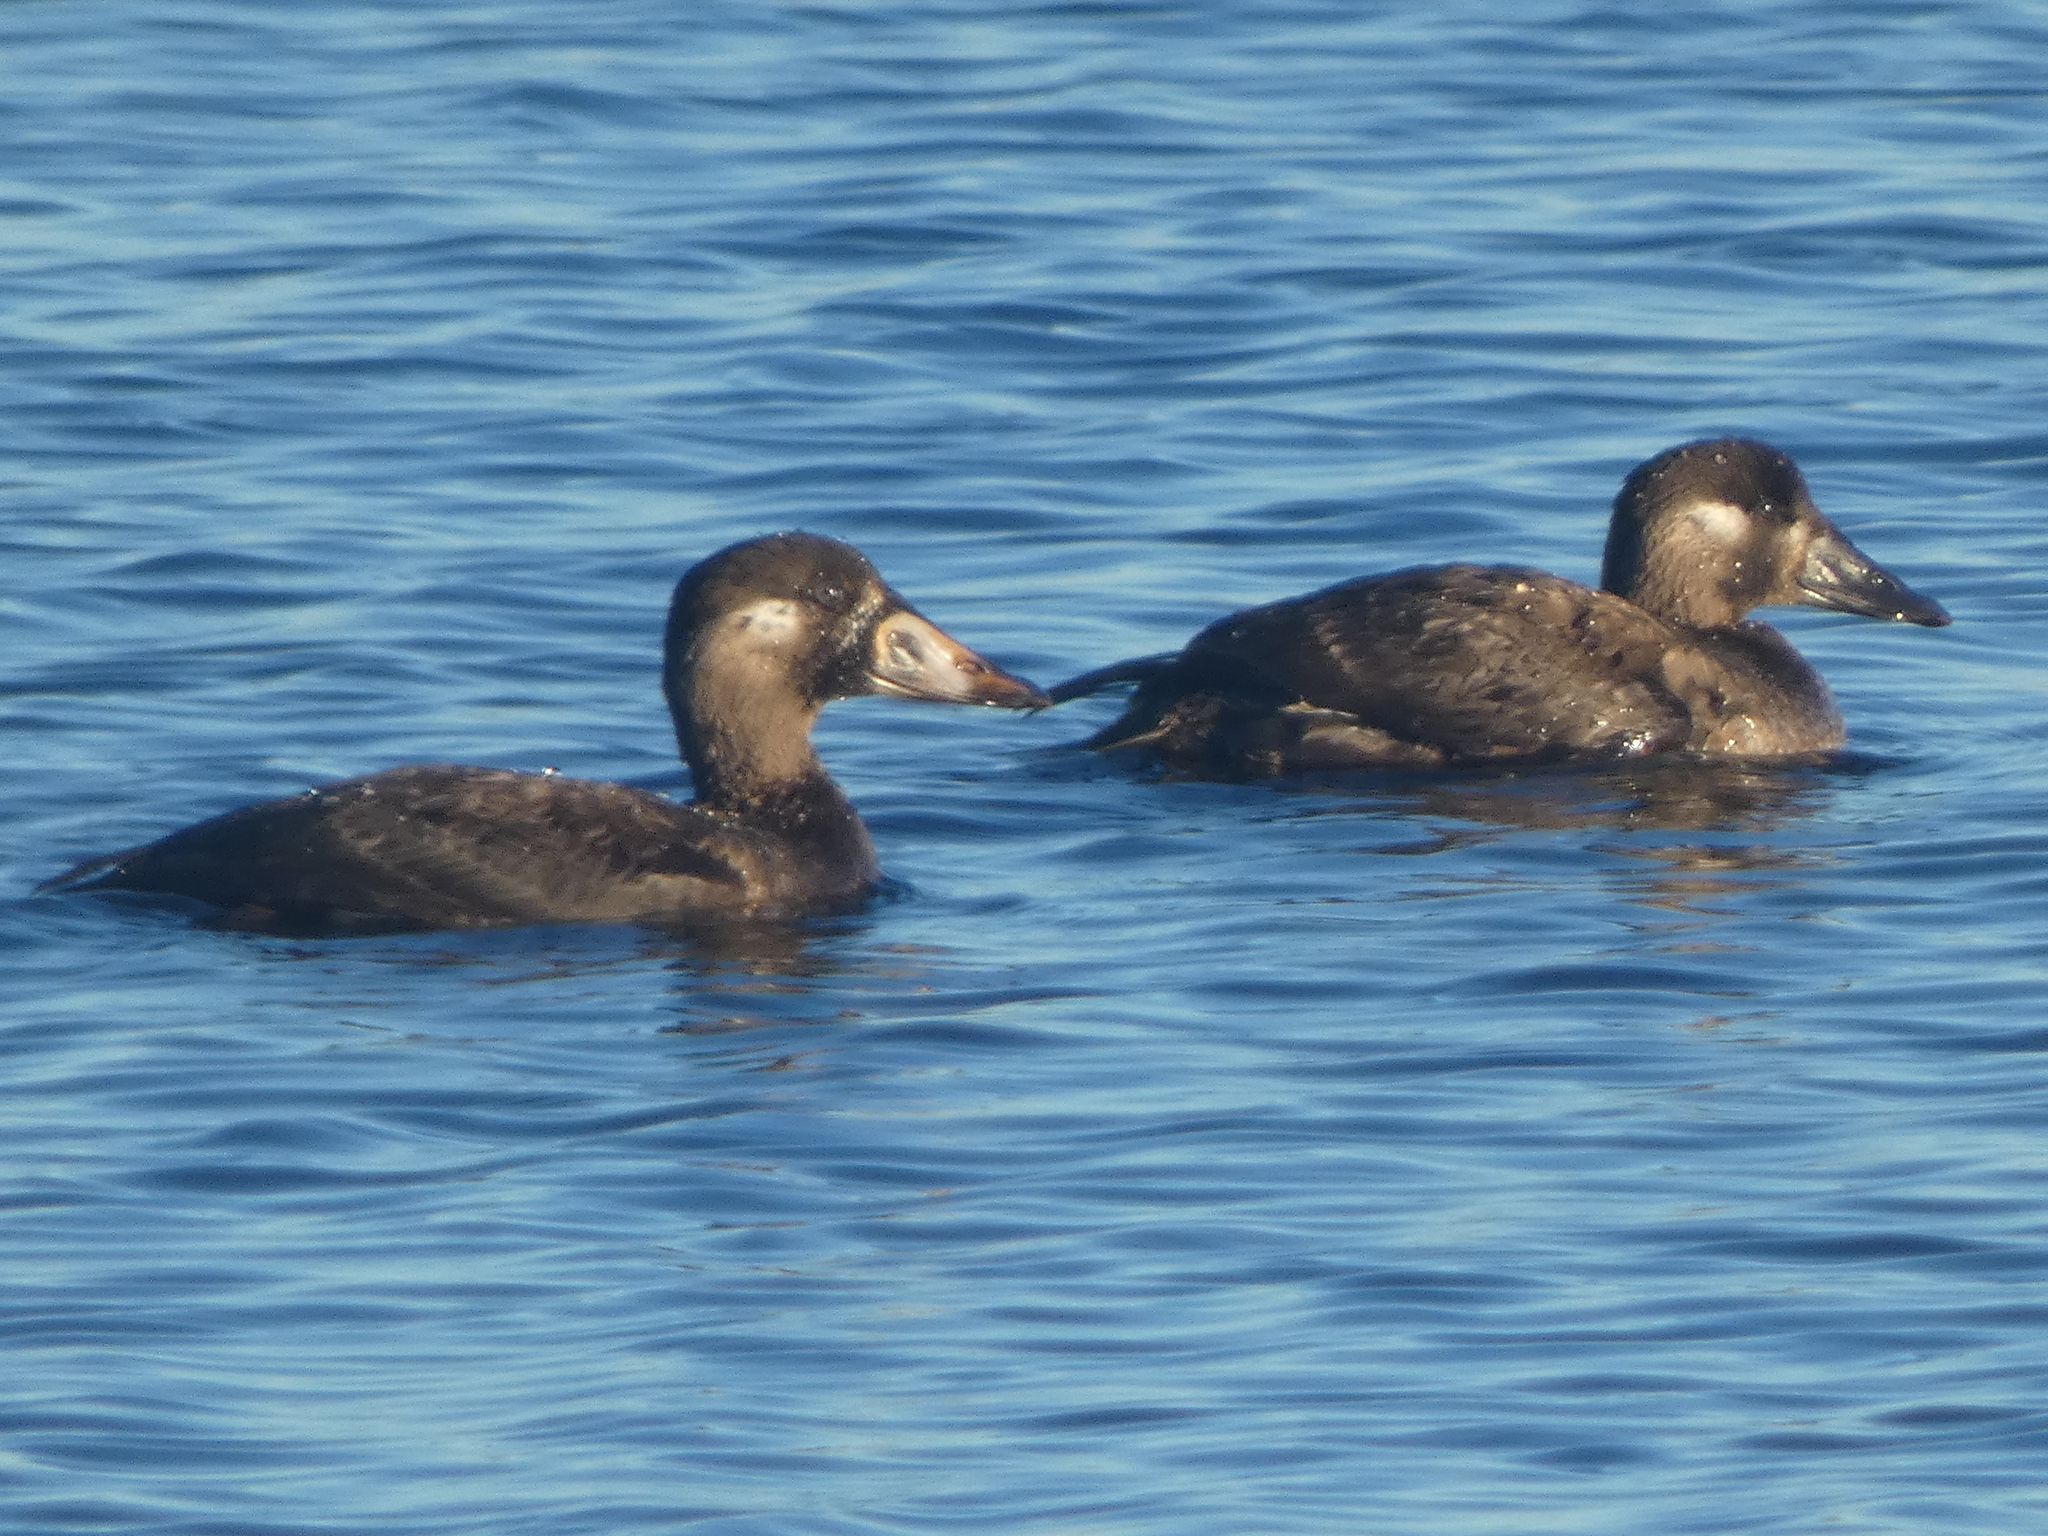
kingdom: Animalia
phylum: Chordata
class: Aves
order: Anseriformes
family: Anatidae
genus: Melanitta
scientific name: Melanitta perspicillata
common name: Surf scoter
